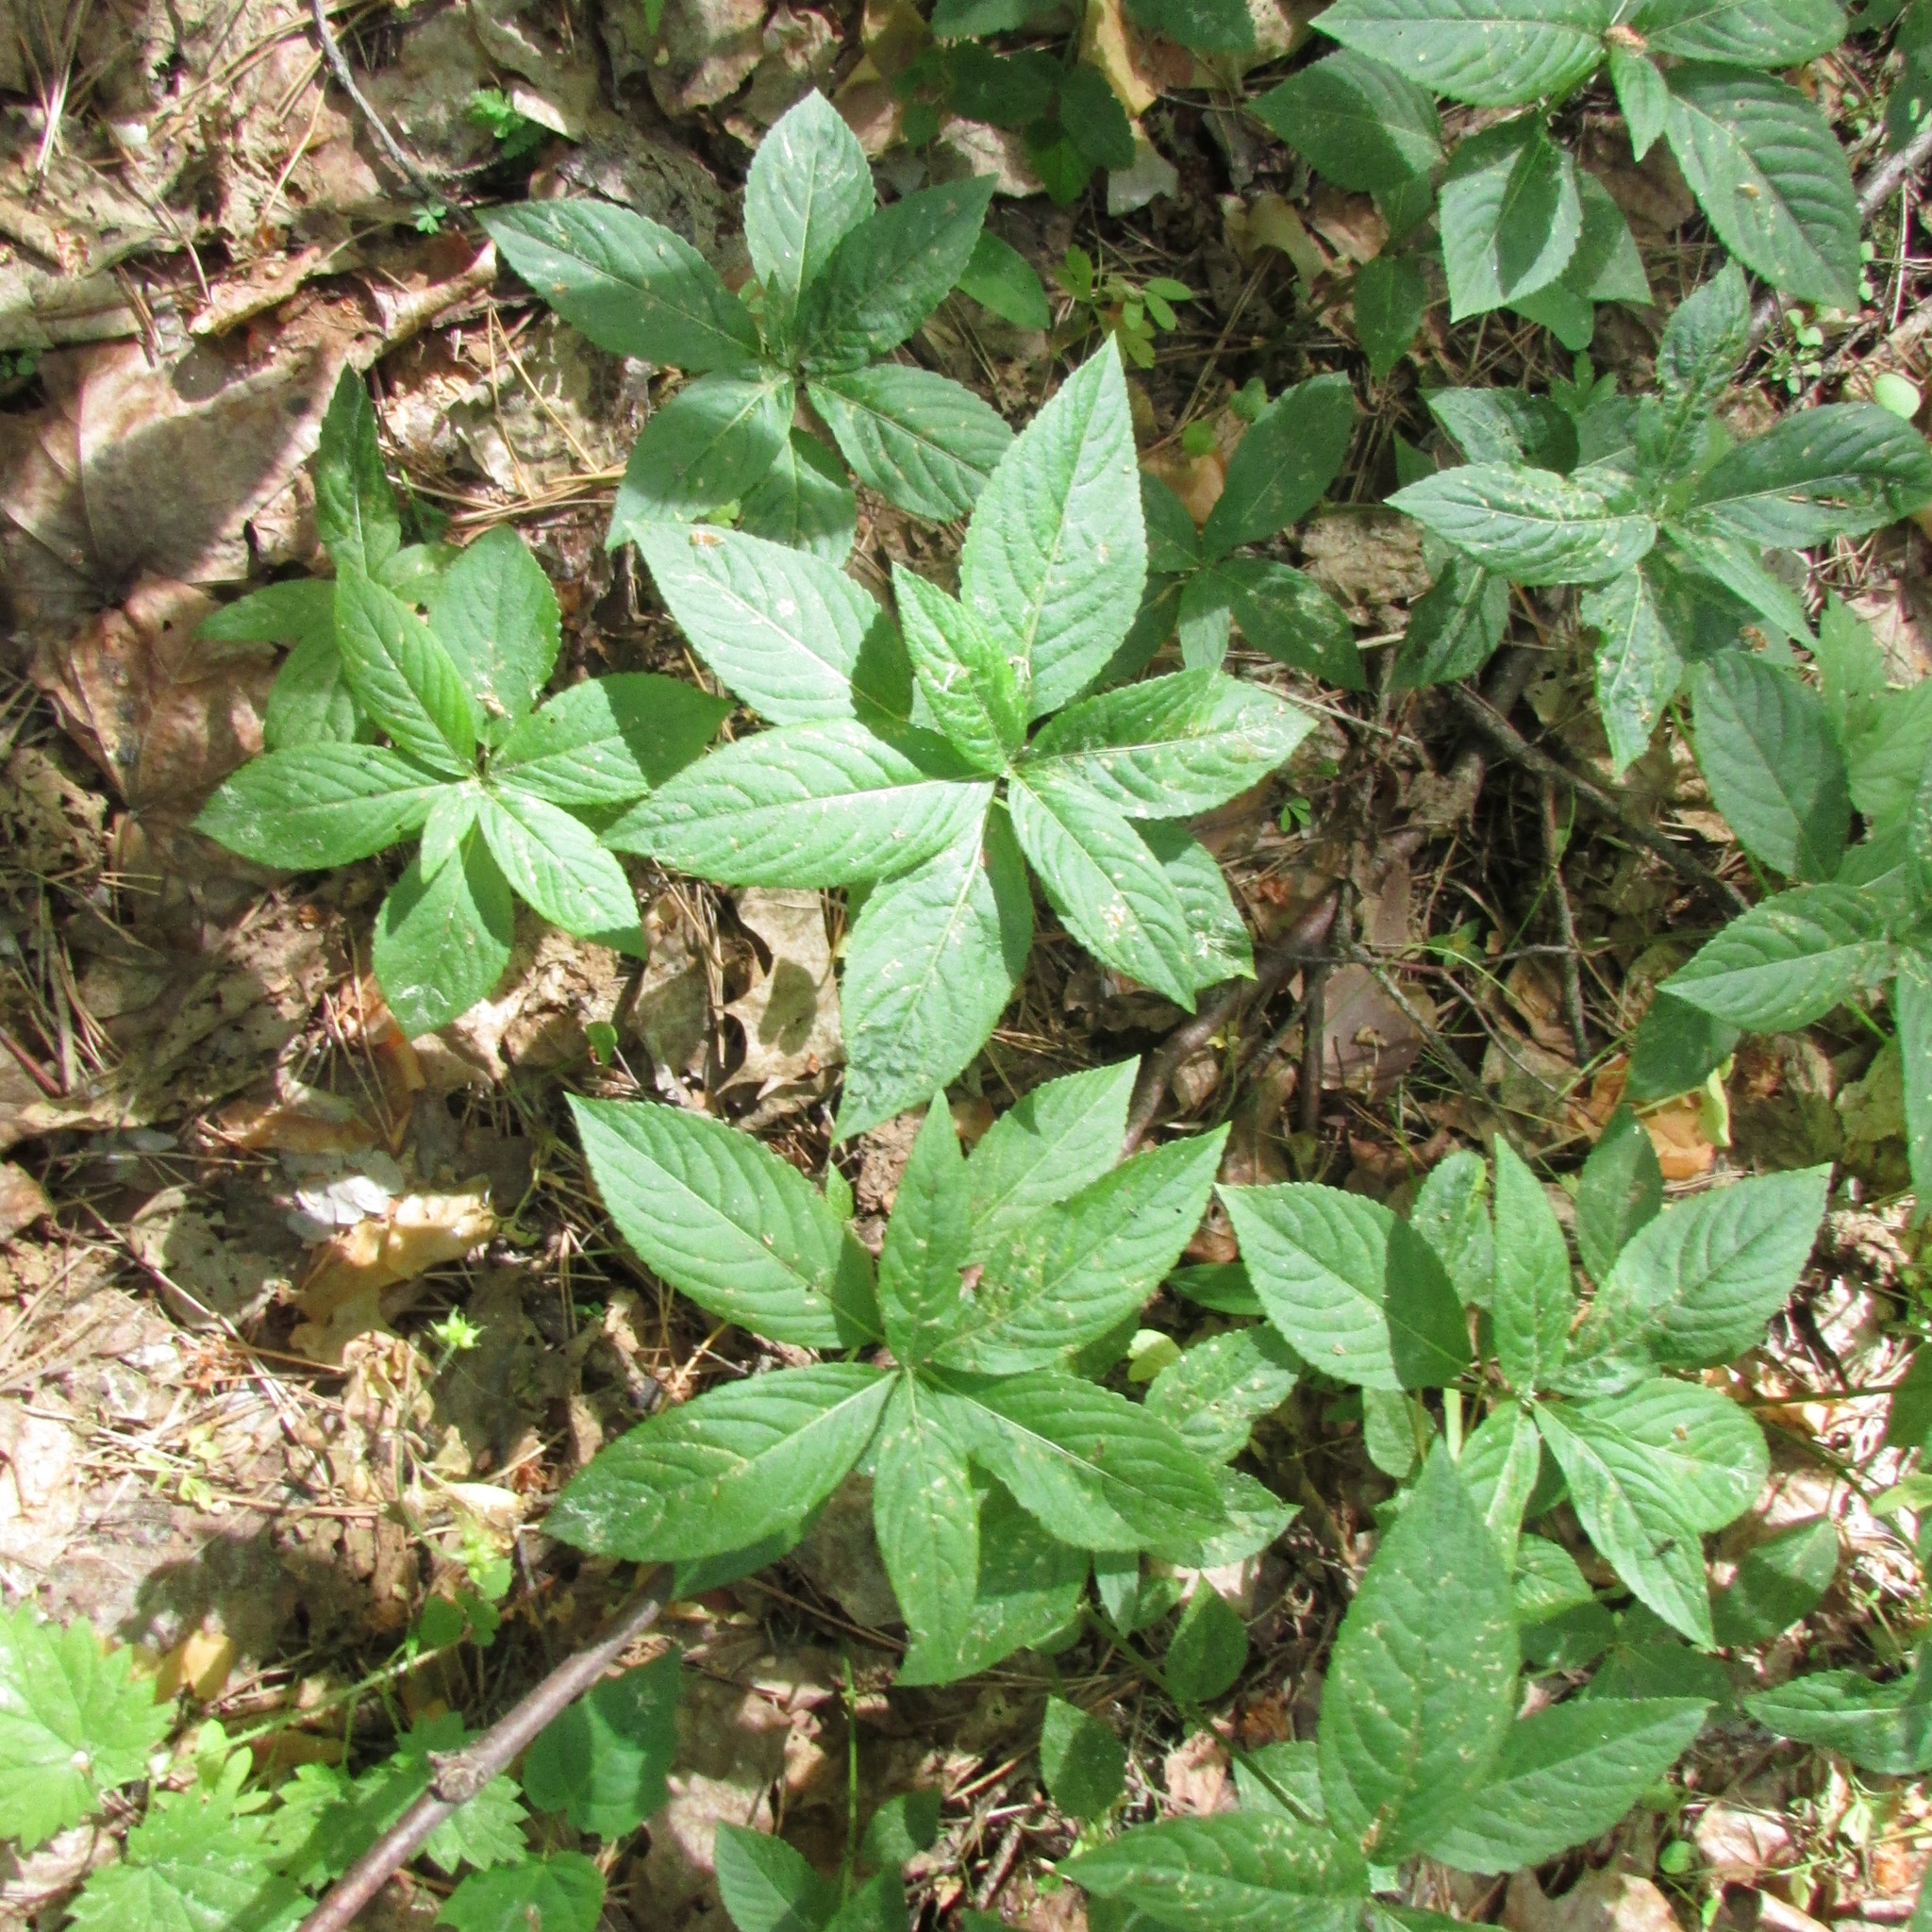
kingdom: Plantae
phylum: Tracheophyta
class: Magnoliopsida
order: Malpighiales
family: Euphorbiaceae
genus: Mercurialis
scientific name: Mercurialis perennis
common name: Dog mercury
